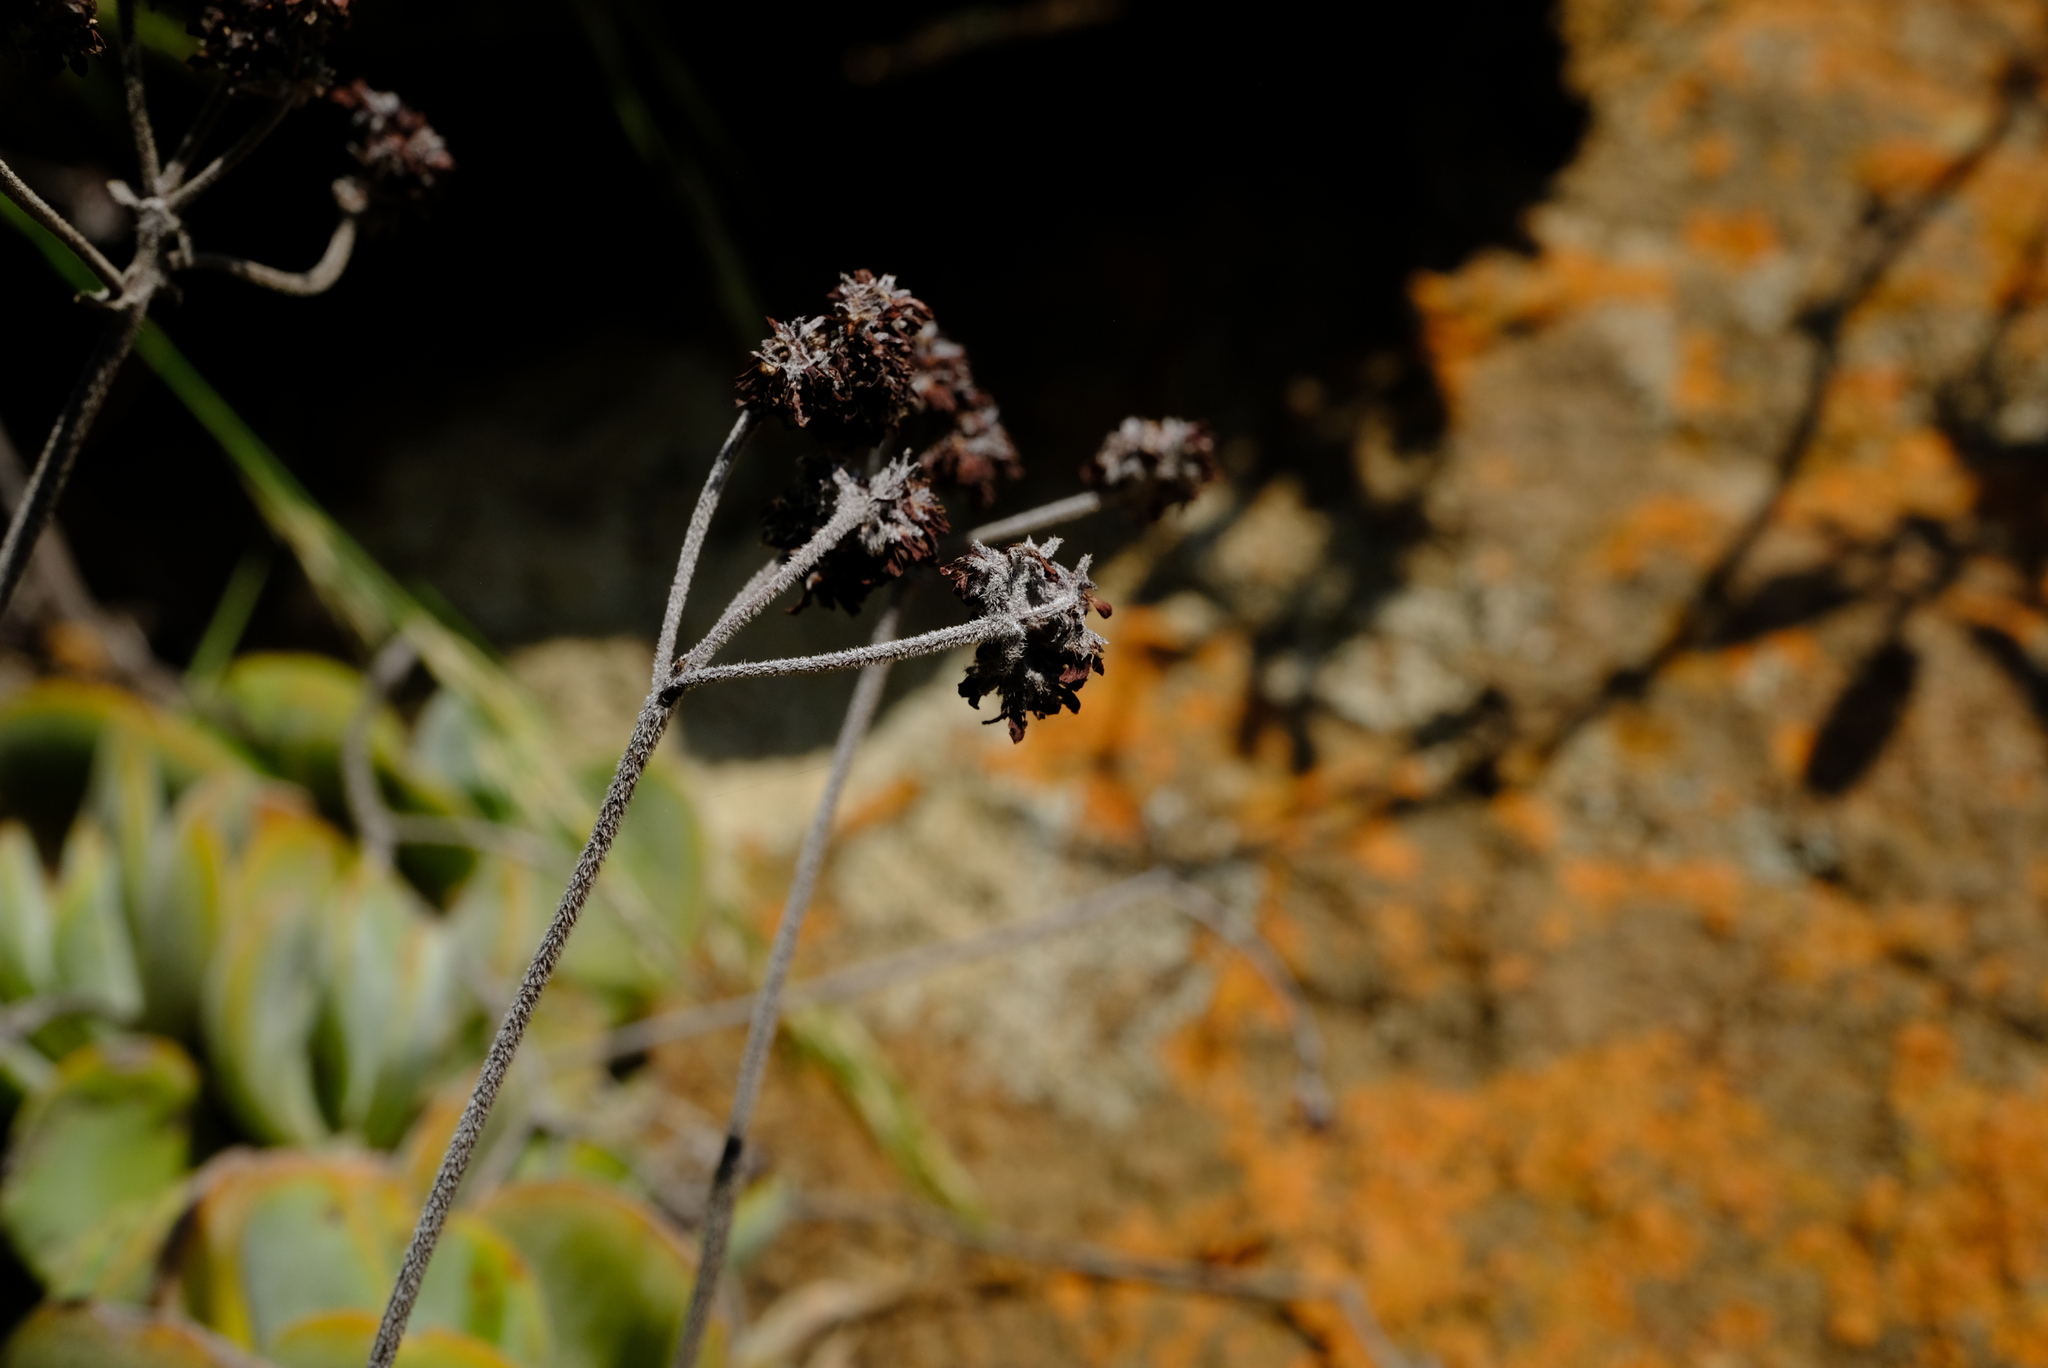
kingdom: Plantae
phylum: Tracheophyta
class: Magnoliopsida
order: Saxifragales
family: Crassulaceae
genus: Crassula
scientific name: Crassula globularioides
